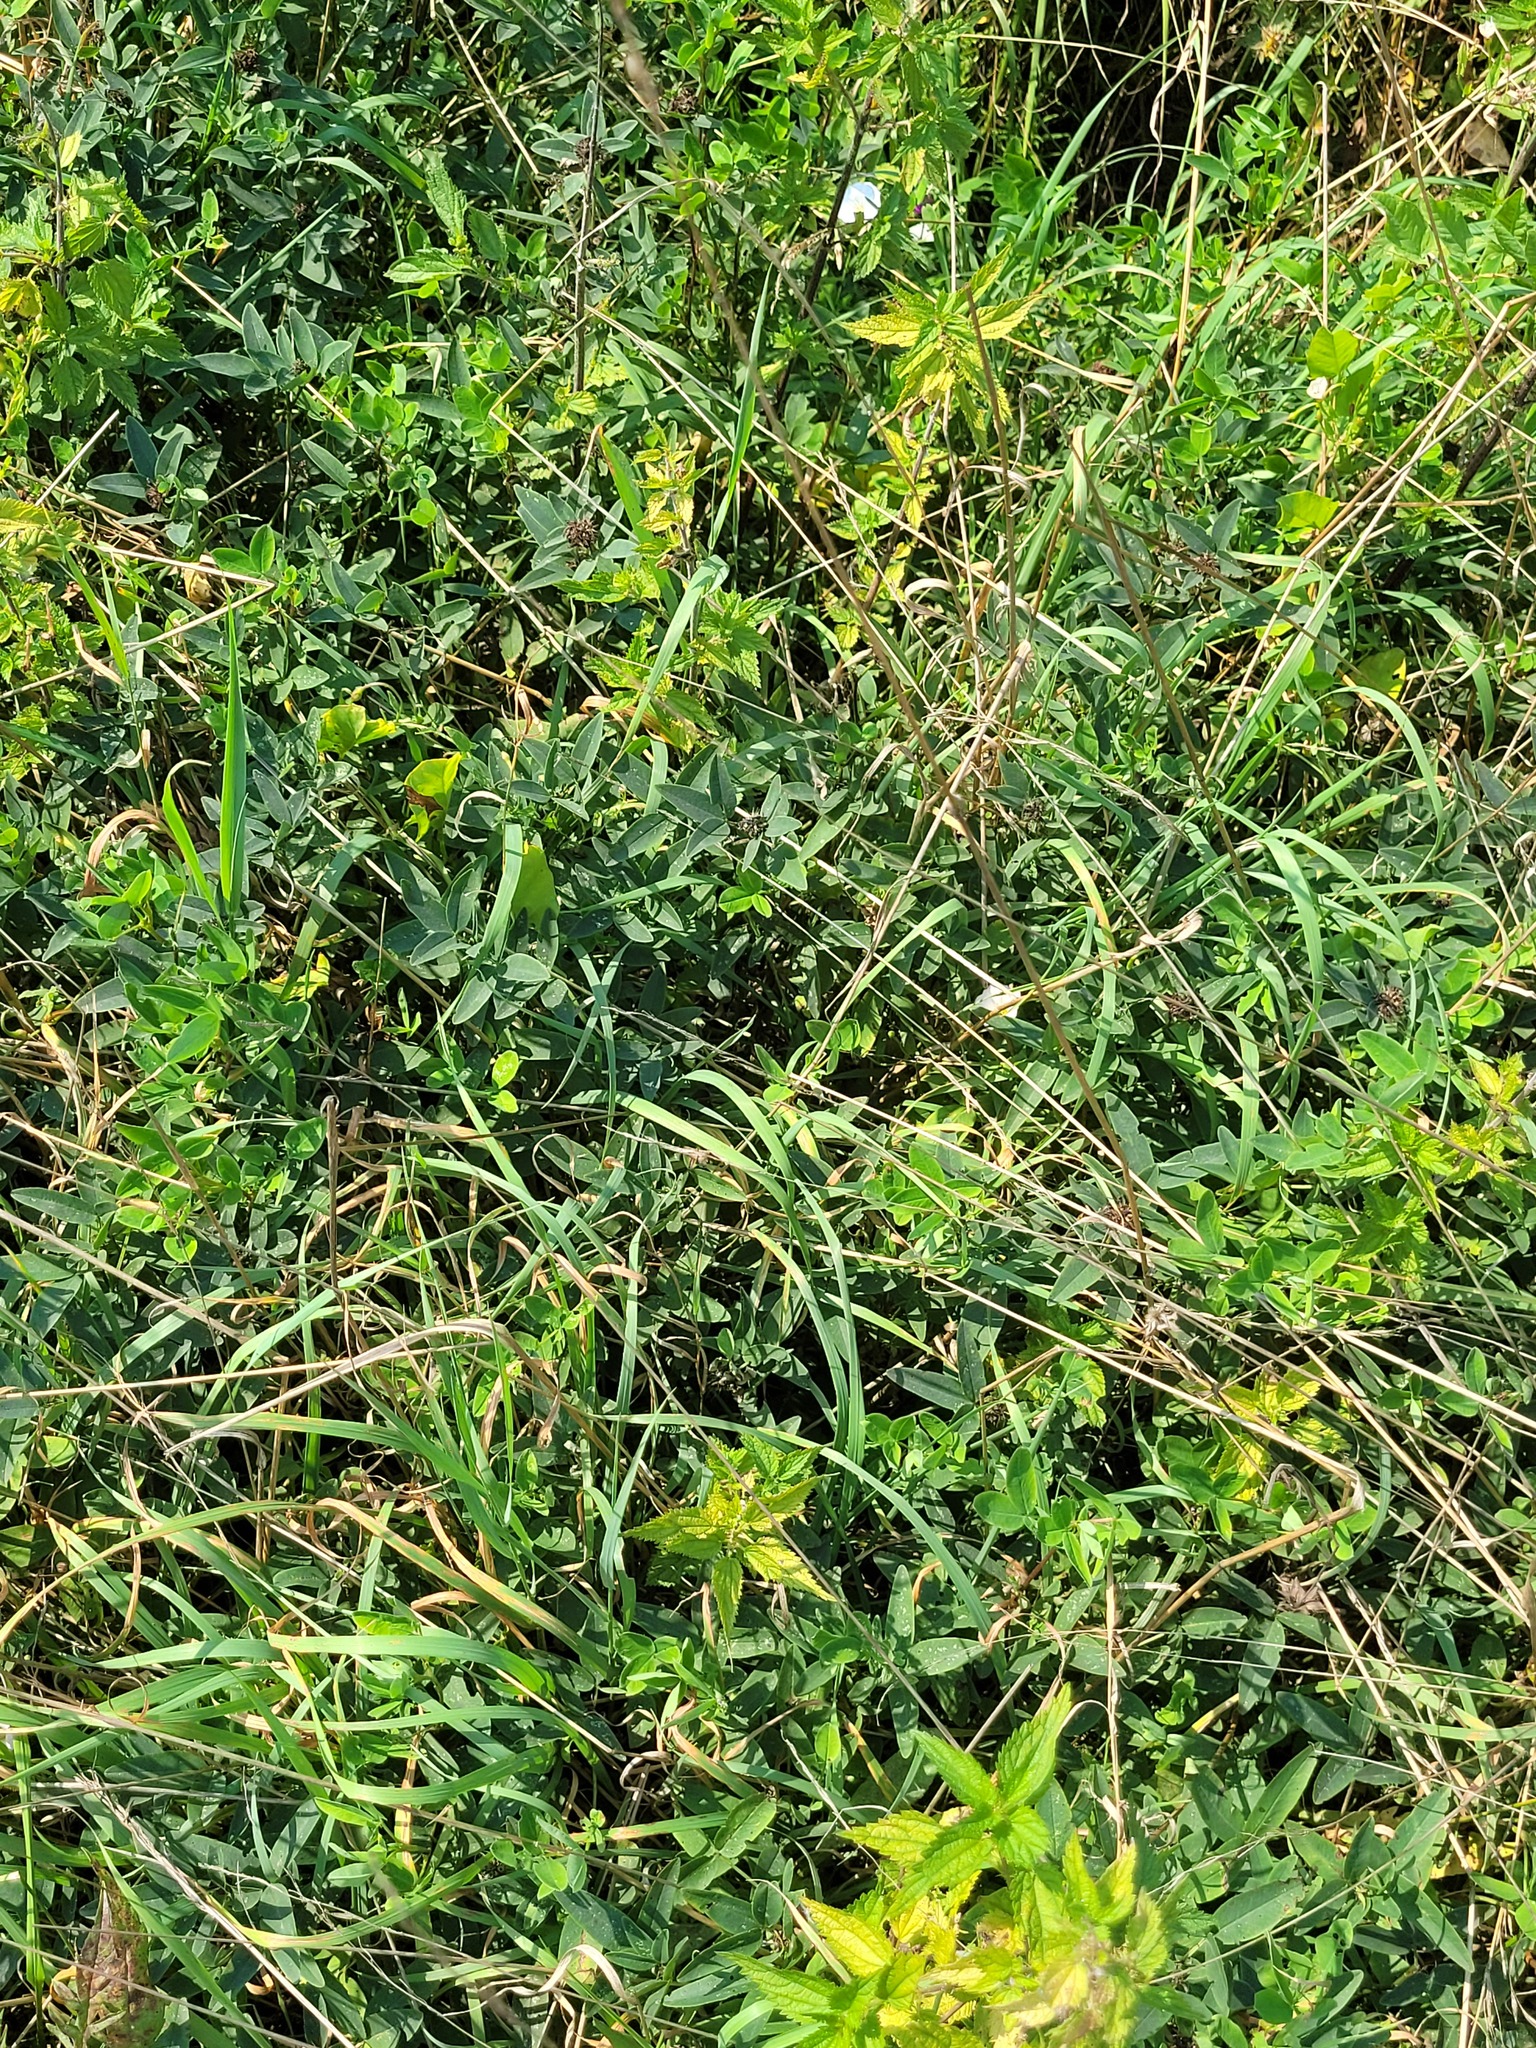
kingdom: Plantae
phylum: Tracheophyta
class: Magnoliopsida
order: Fabales
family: Fabaceae
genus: Trifolium
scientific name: Trifolium medium
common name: Zigzag clover
